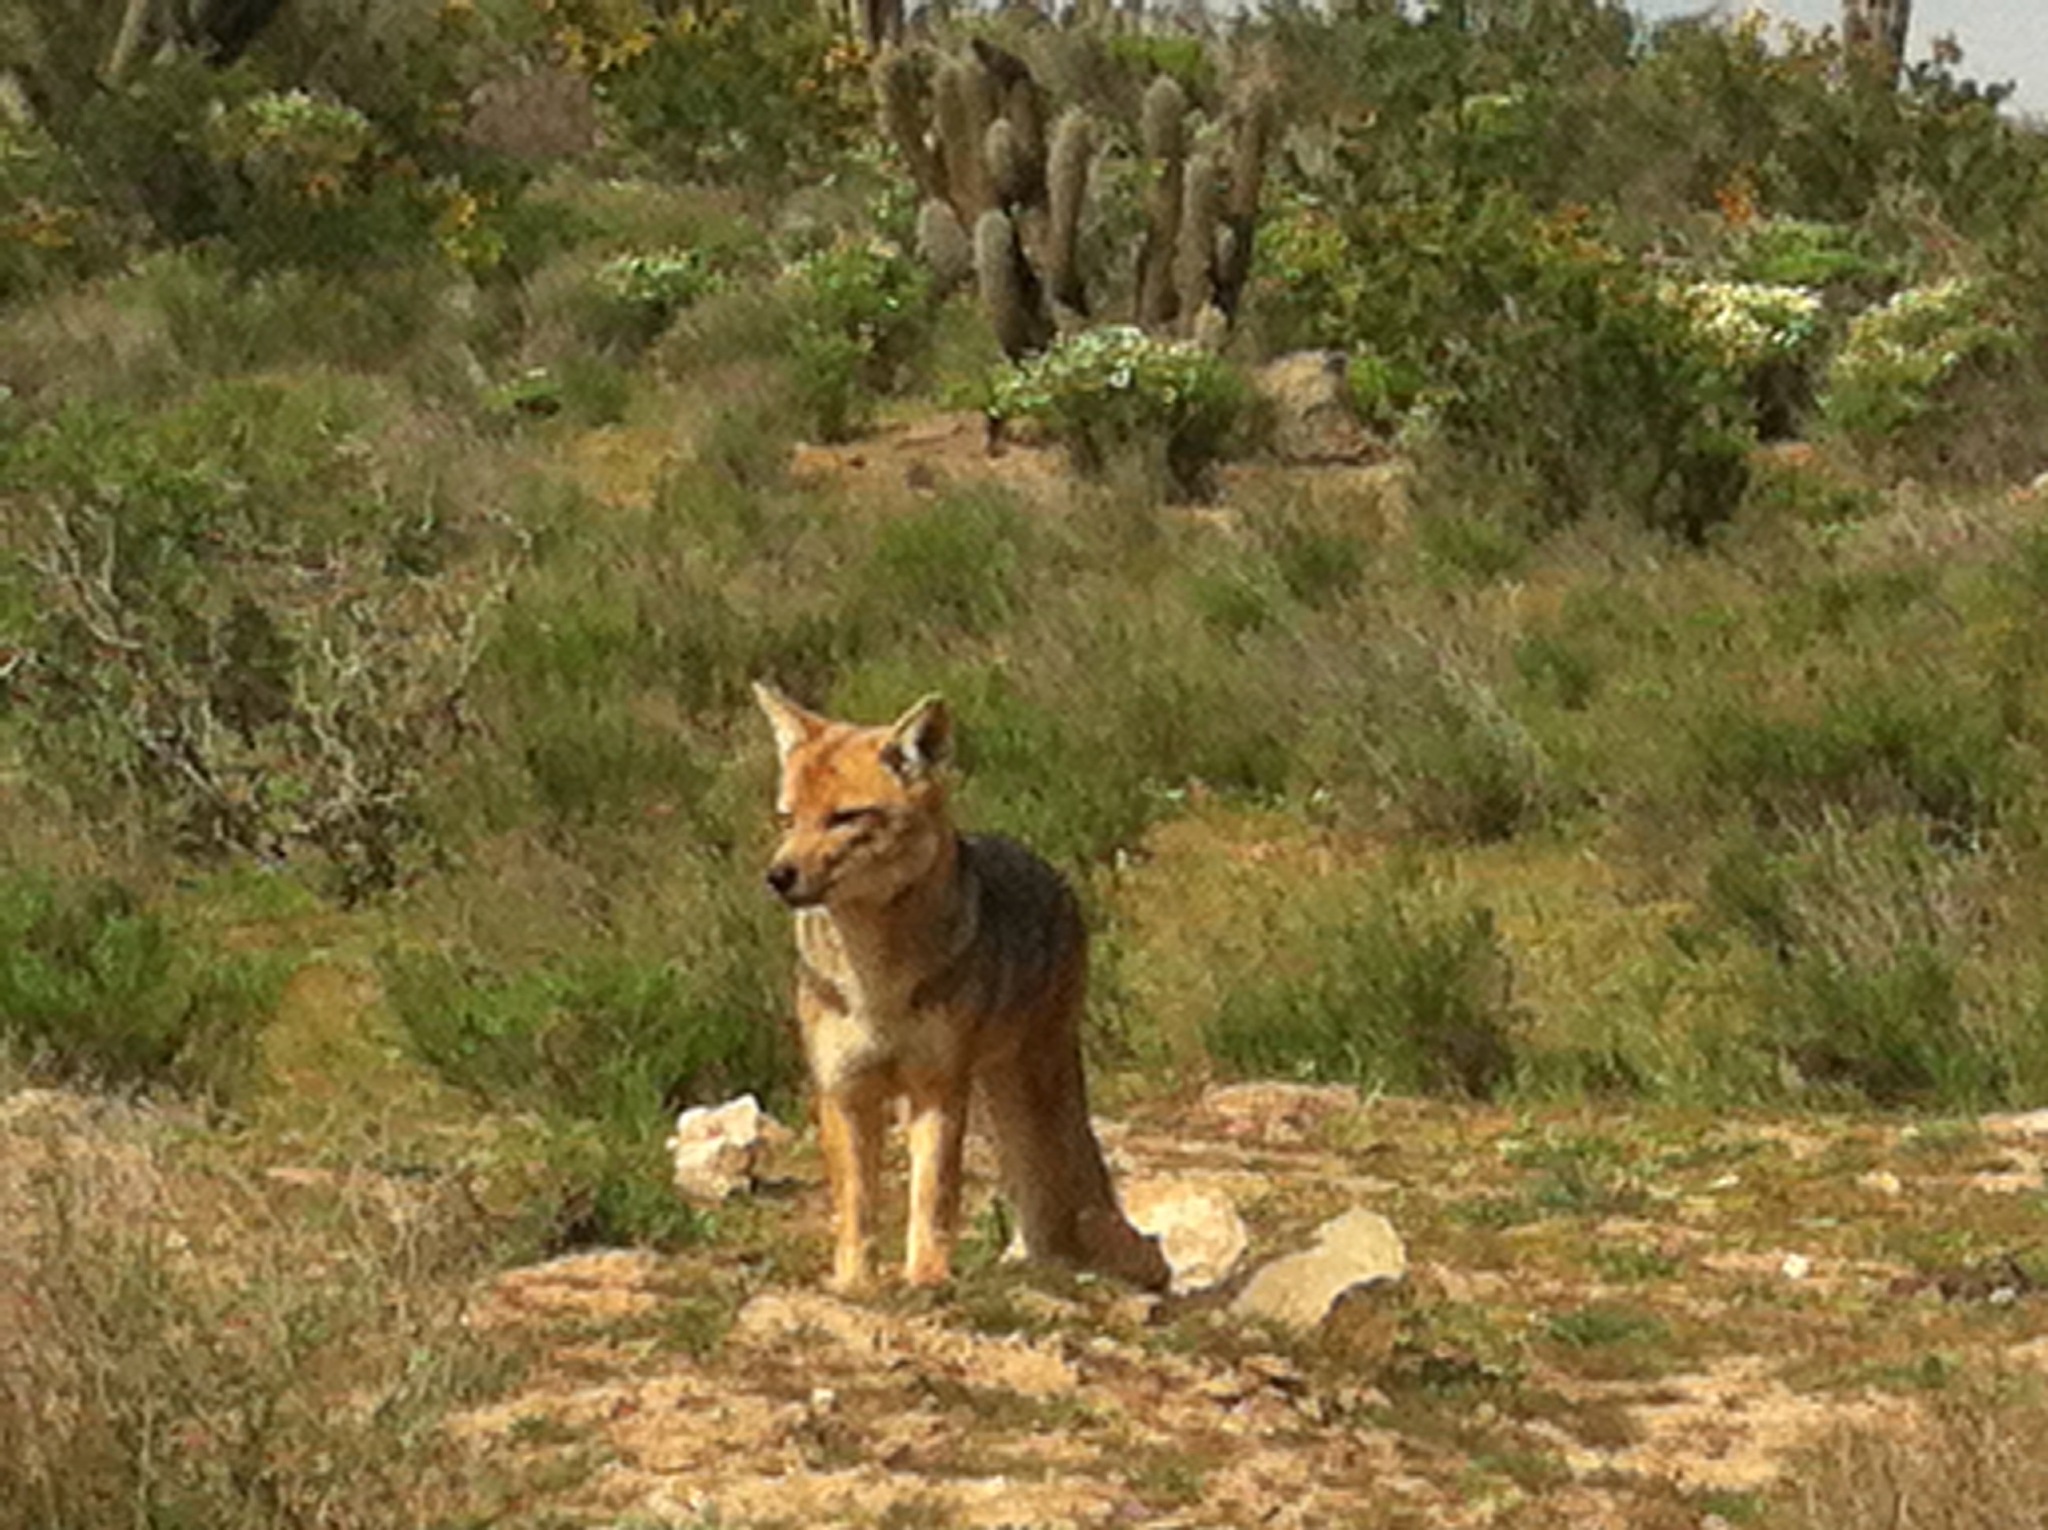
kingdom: Animalia
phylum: Chordata
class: Mammalia
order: Carnivora
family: Canidae
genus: Lycalopex
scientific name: Lycalopex culpaeus
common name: Culpeo
